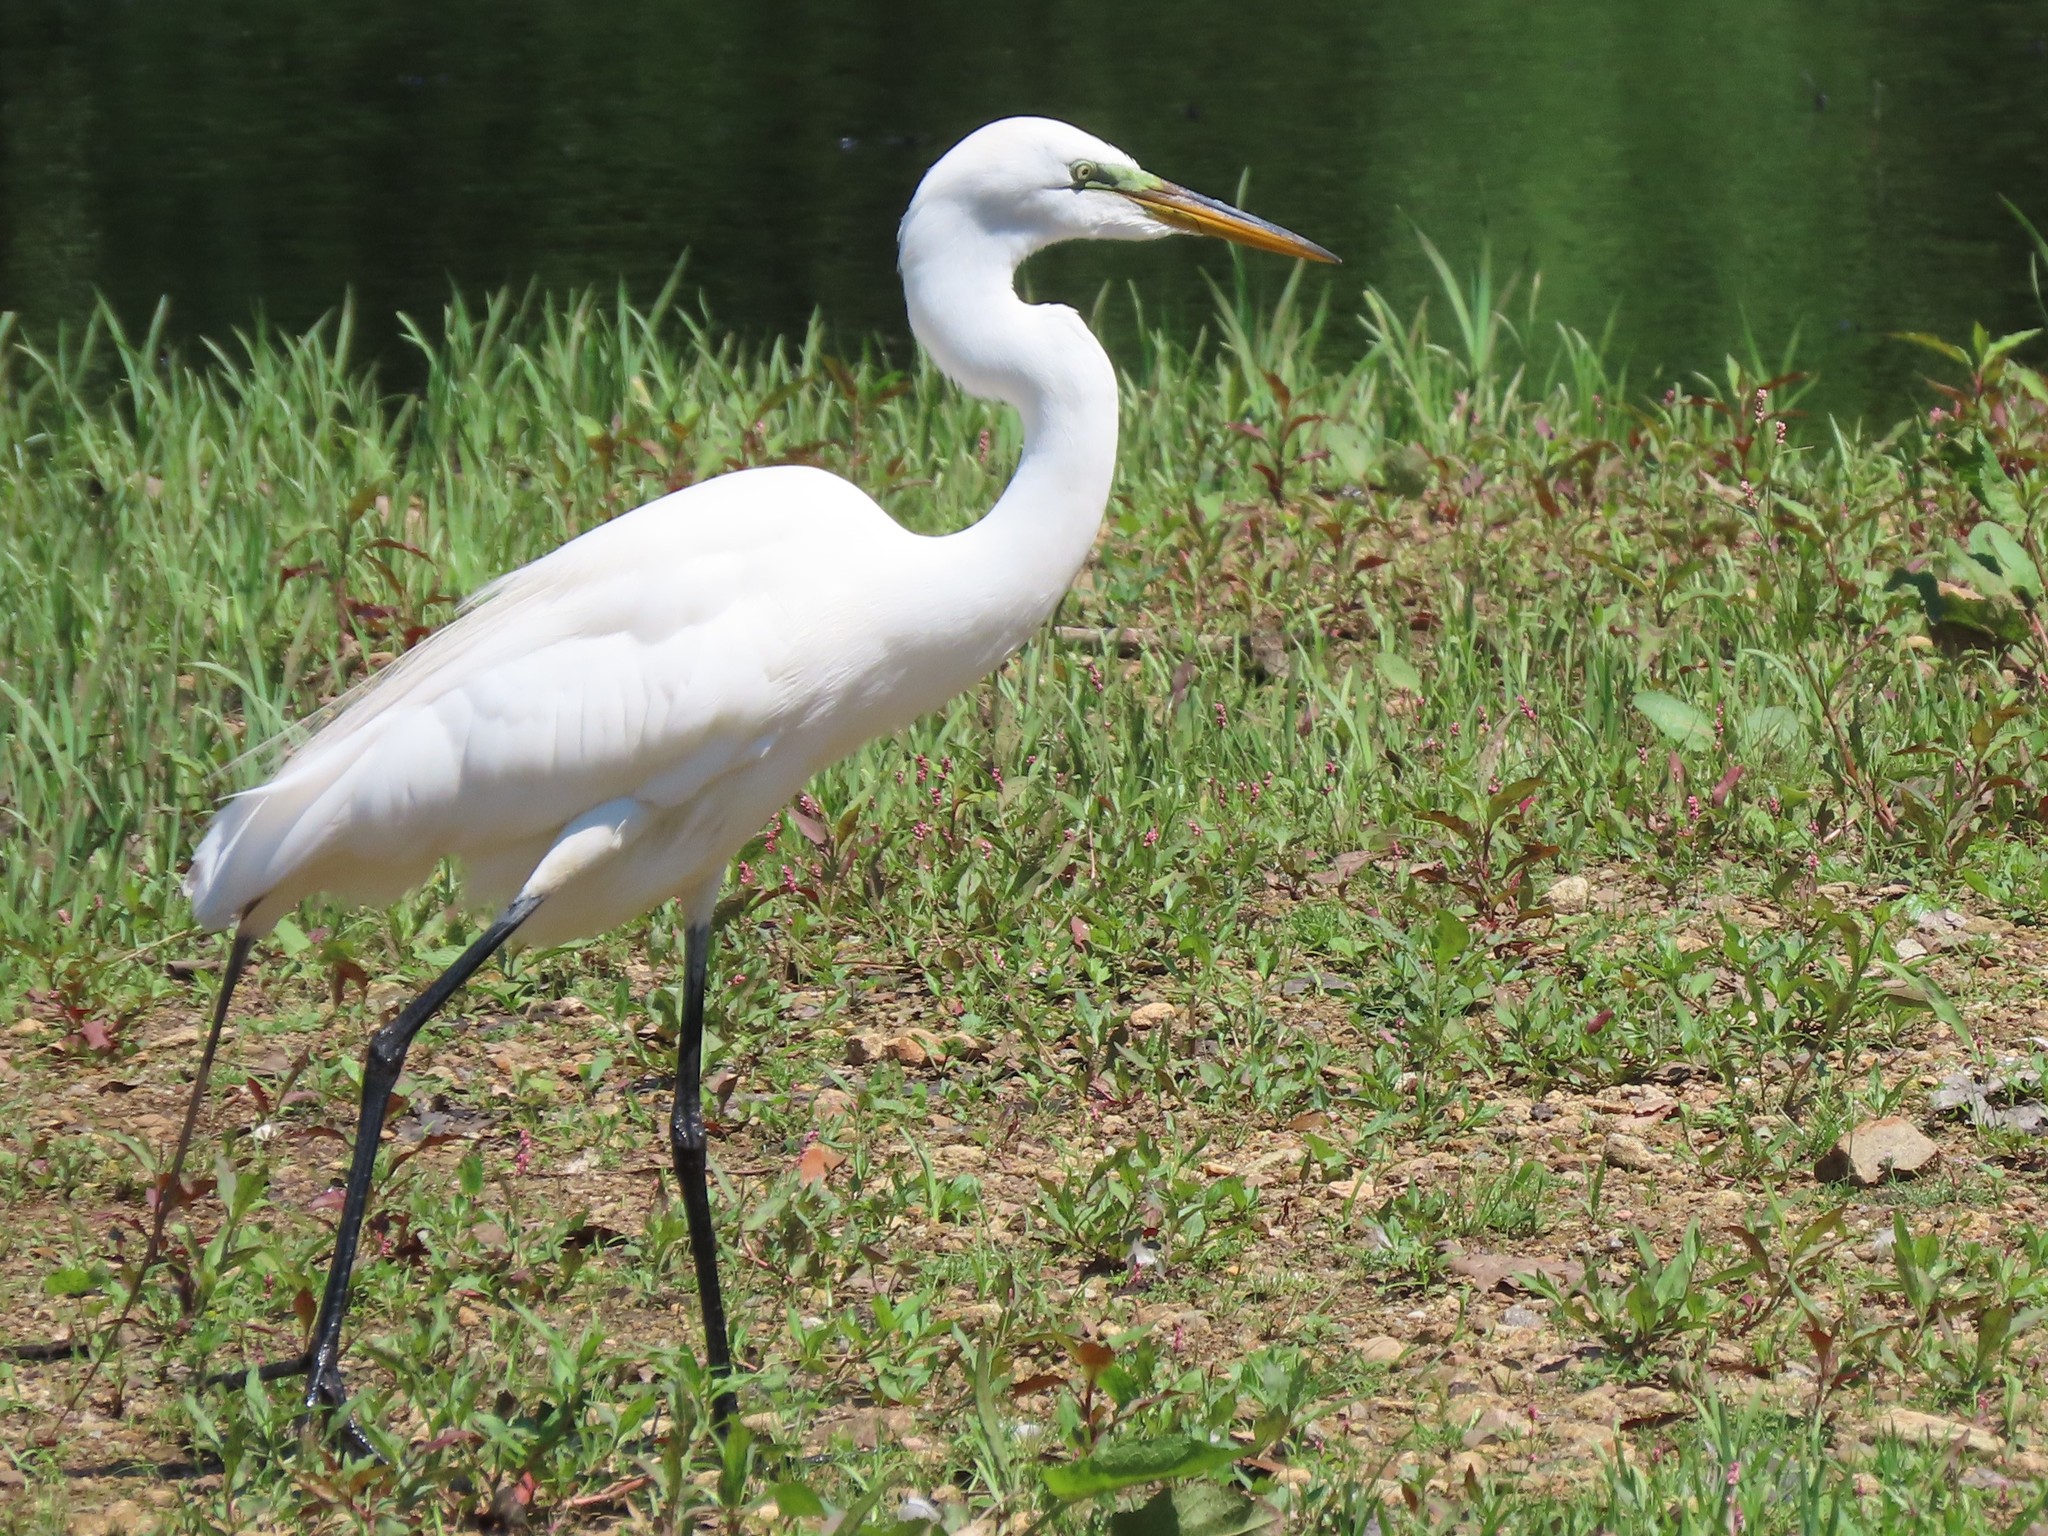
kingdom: Animalia
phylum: Chordata
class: Aves
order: Pelecaniformes
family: Ardeidae
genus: Ardea
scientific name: Ardea alba
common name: Great egret
